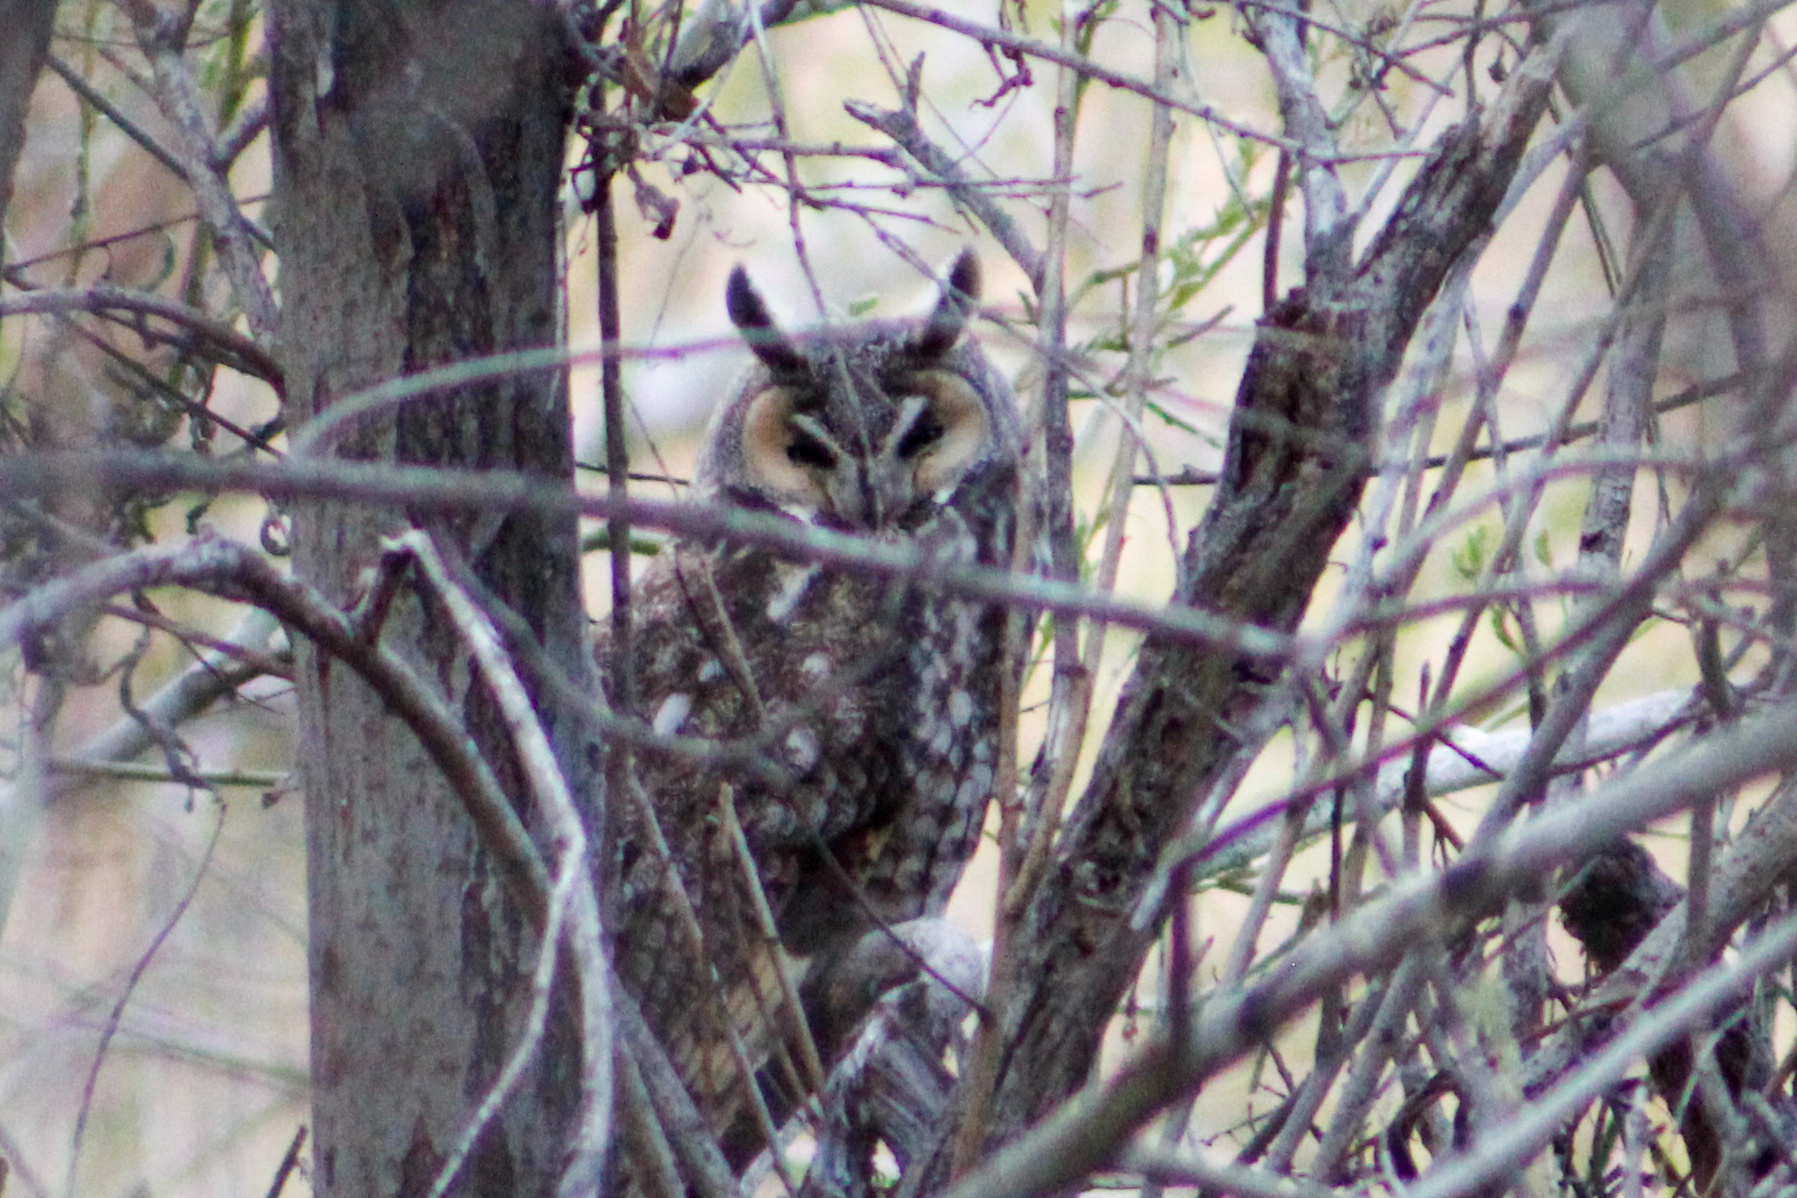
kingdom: Animalia
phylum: Chordata
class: Aves
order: Strigiformes
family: Strigidae
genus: Asio
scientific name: Asio otus
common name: Long-eared owl
